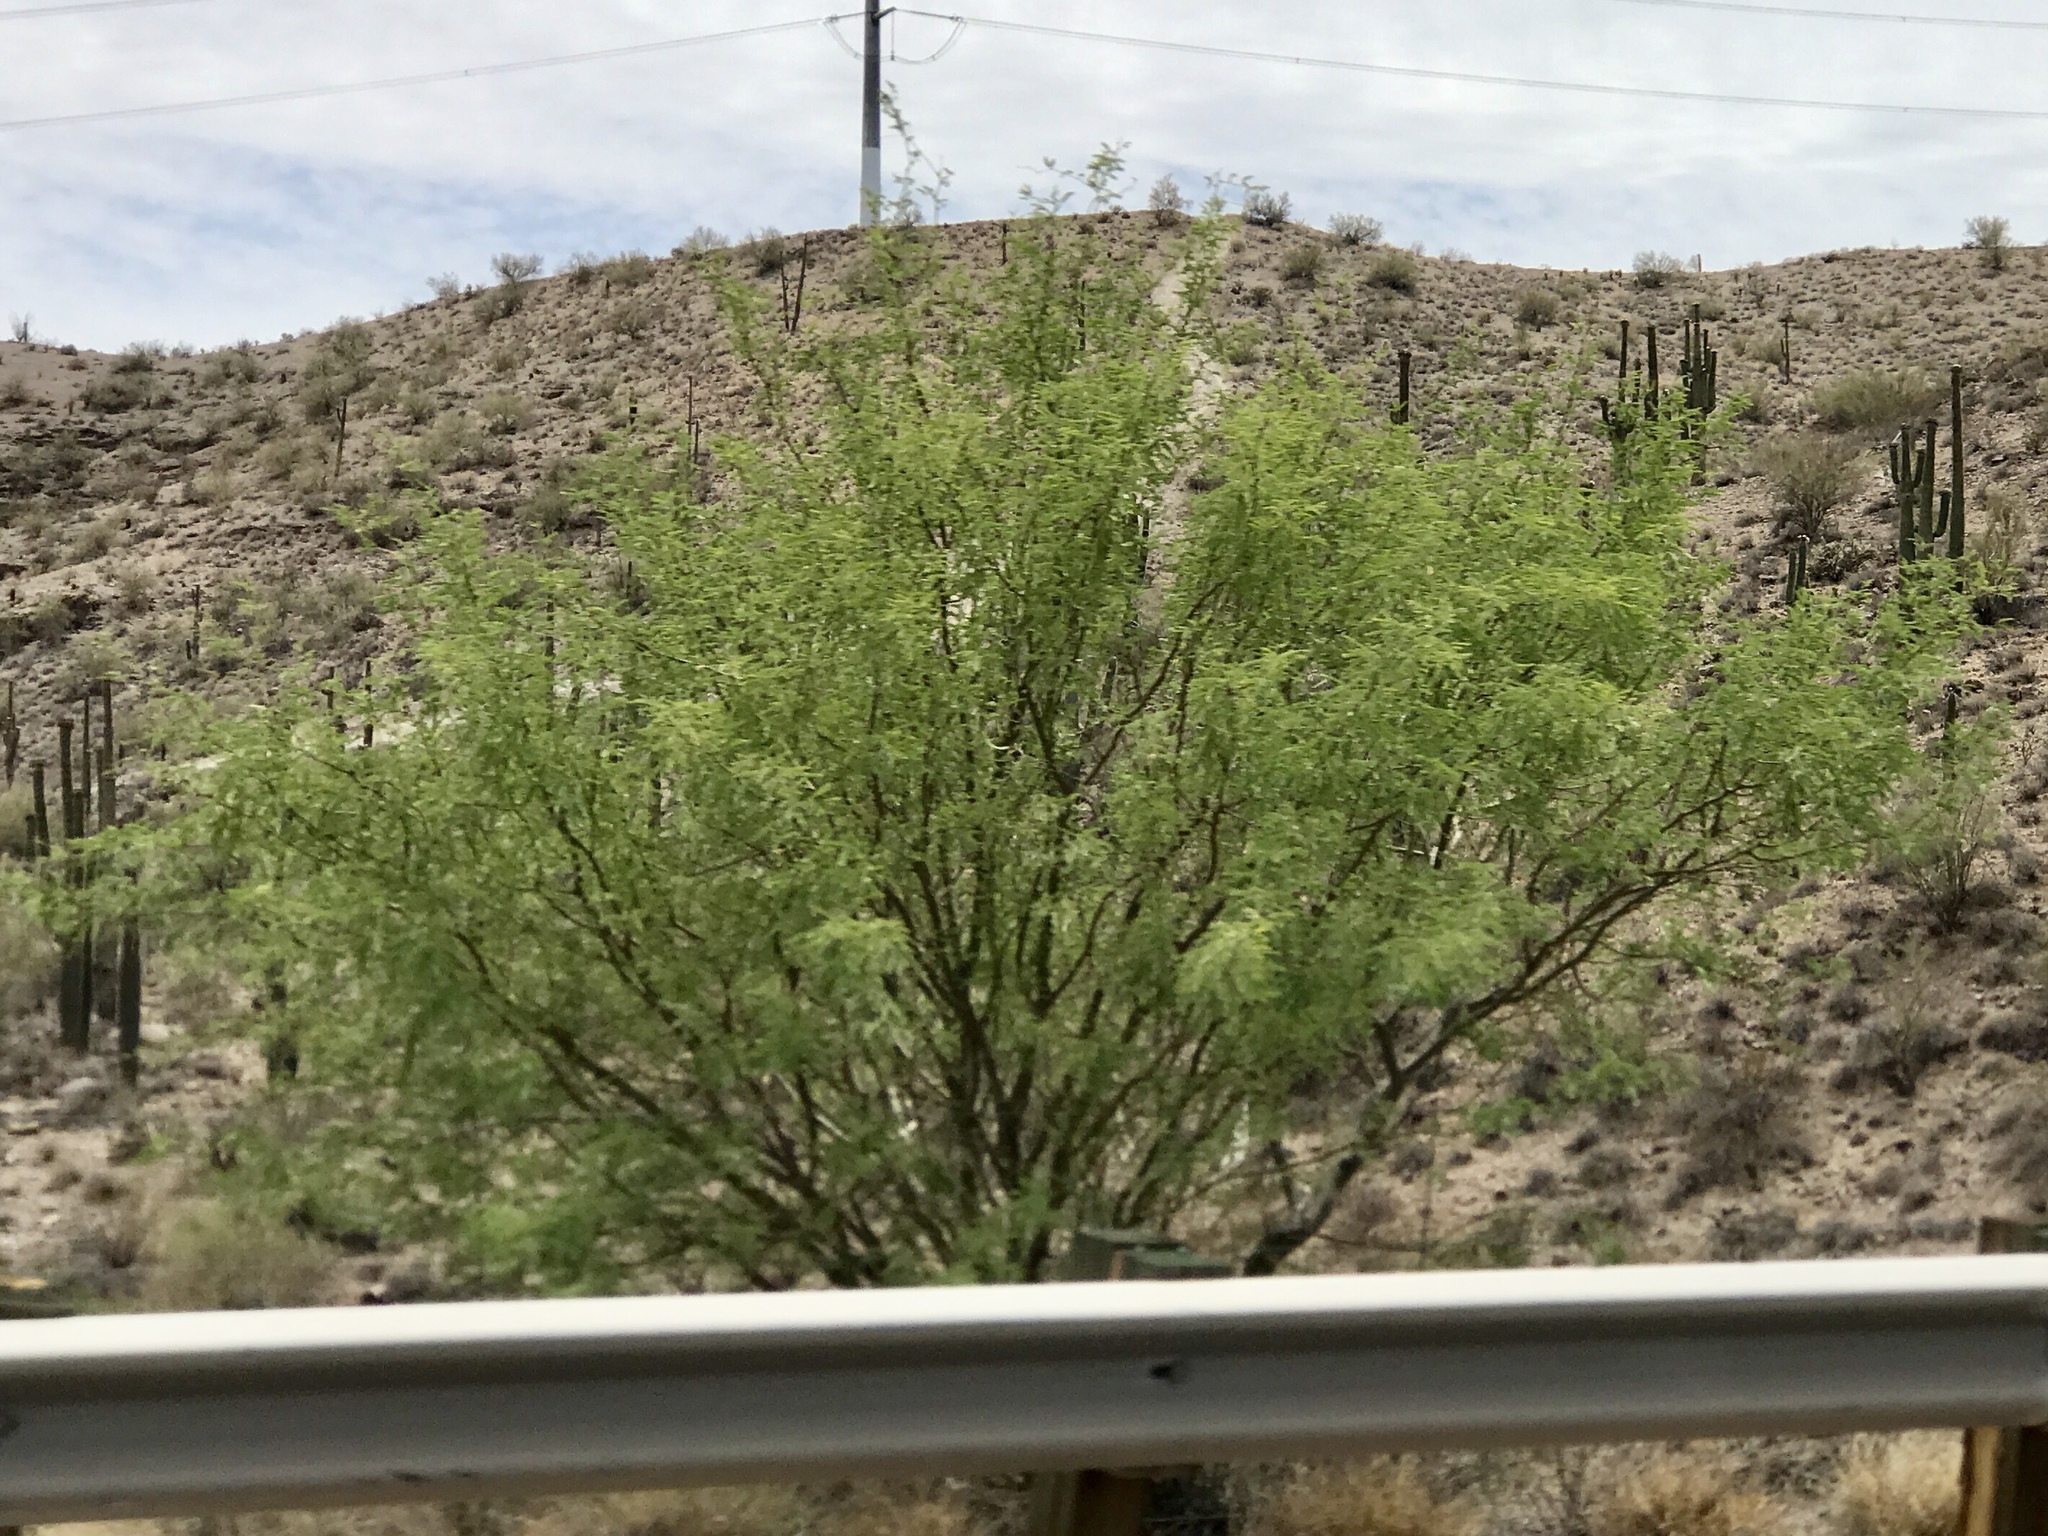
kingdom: Plantae
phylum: Tracheophyta
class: Magnoliopsida
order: Fabales
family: Fabaceae
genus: Prosopis
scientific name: Prosopis glandulosa
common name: Honey mesquite
